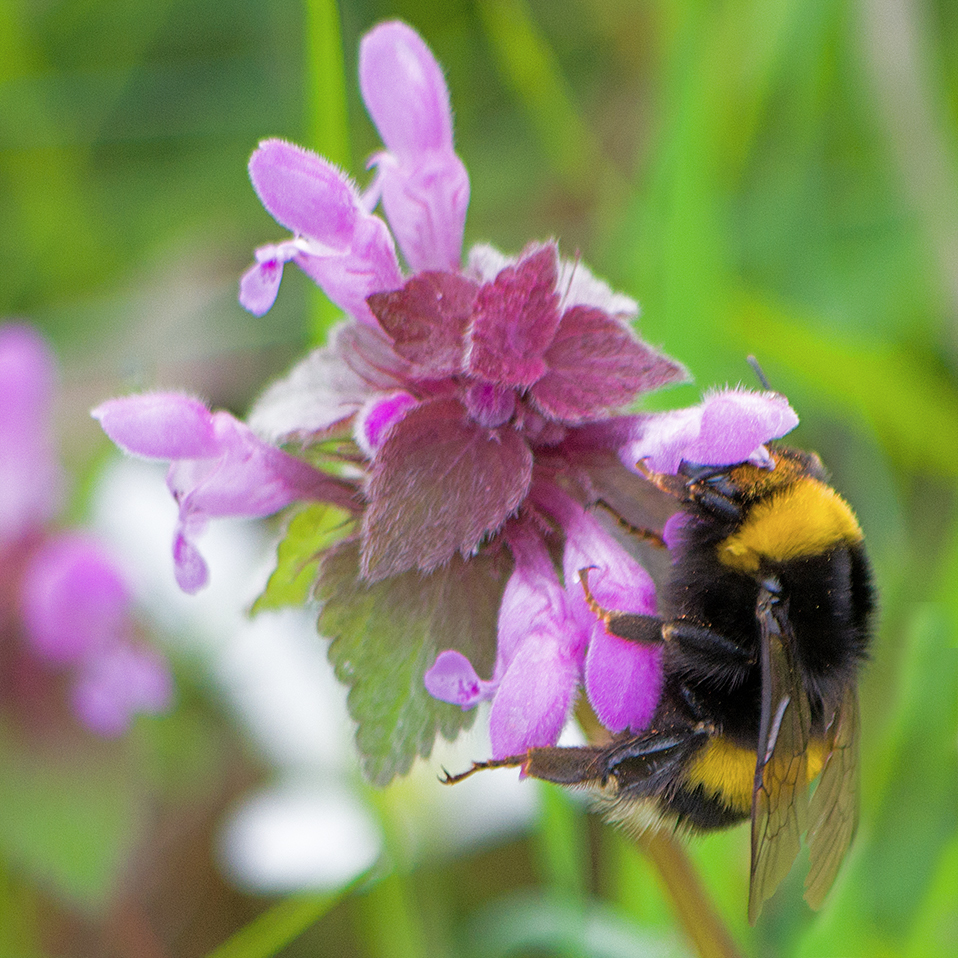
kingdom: Animalia
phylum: Arthropoda
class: Insecta
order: Hymenoptera
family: Apidae
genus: Bombus
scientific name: Bombus terrestris
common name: Buff-tailed bumblebee
